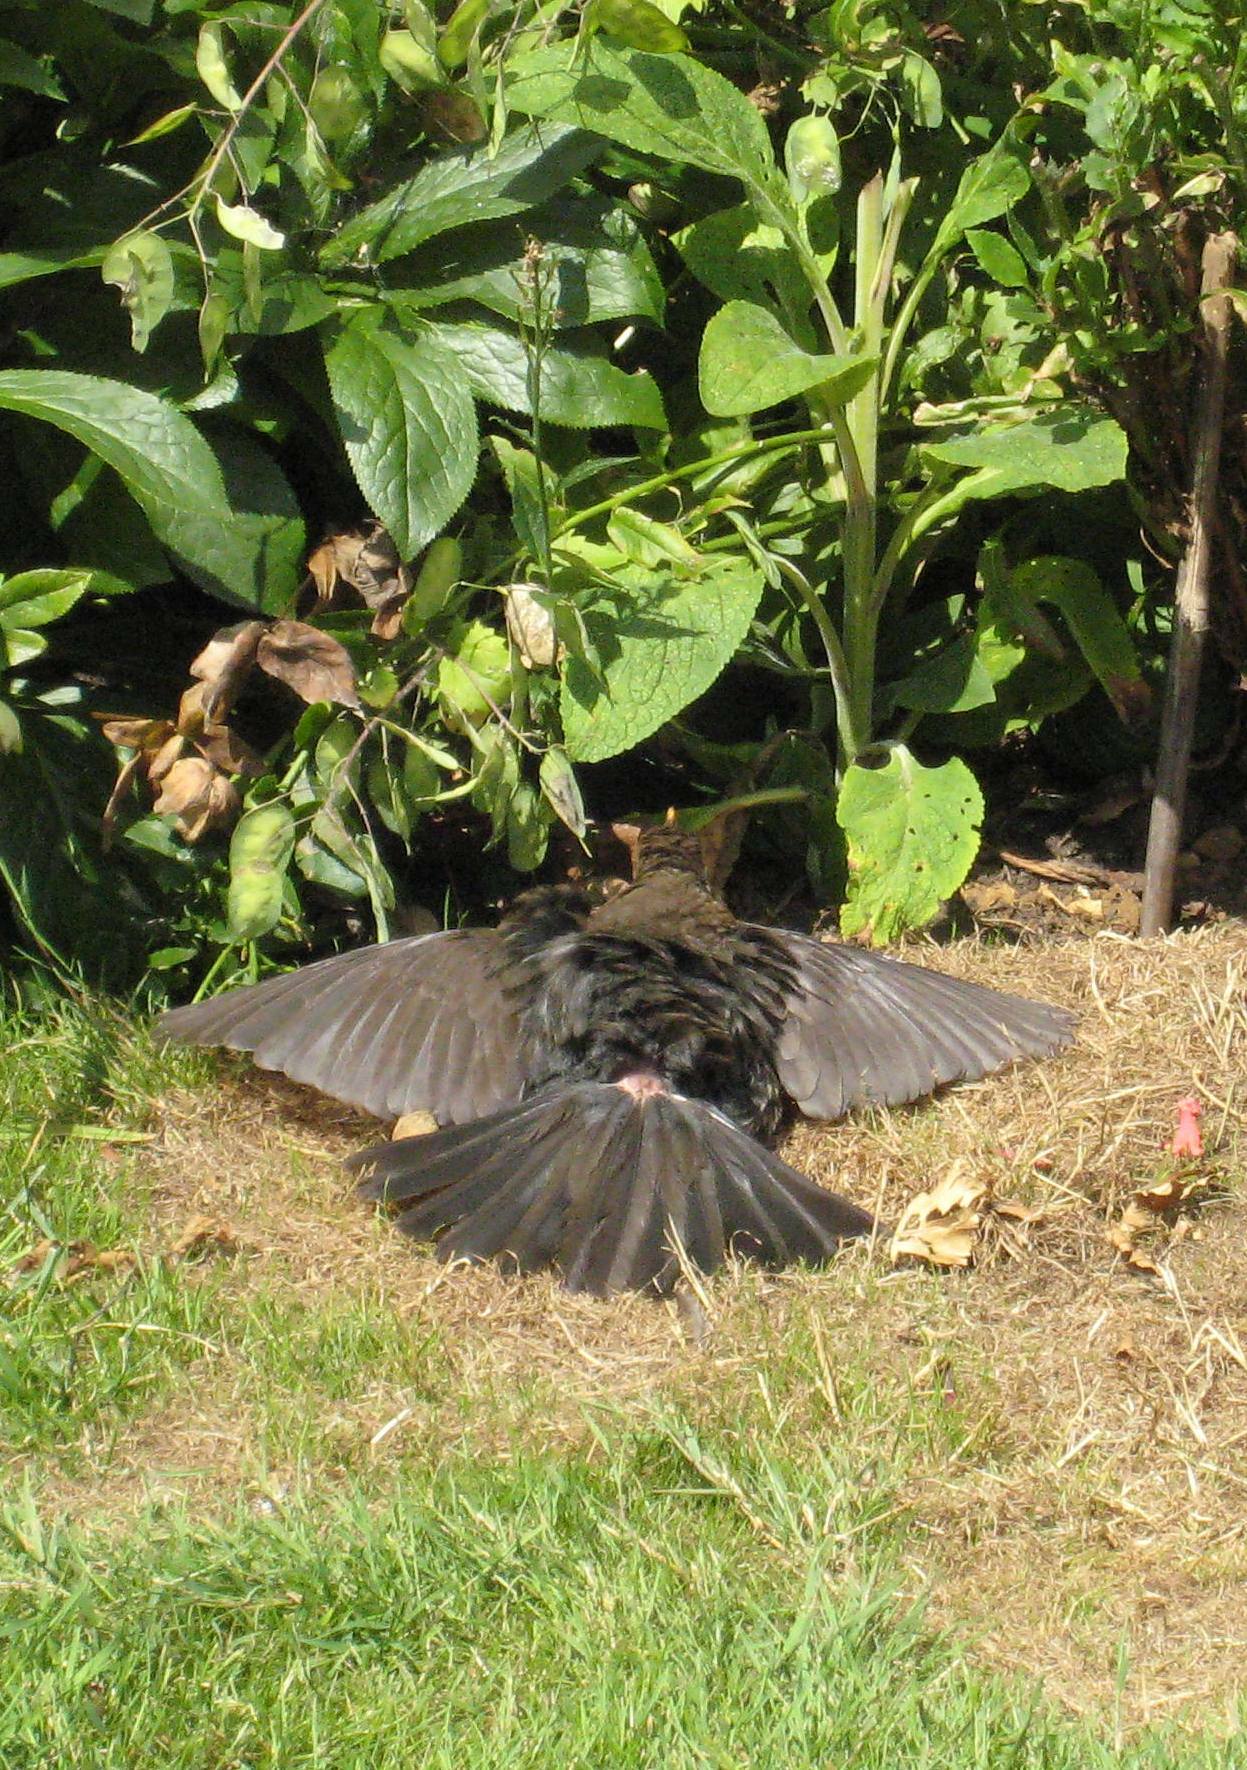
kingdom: Animalia
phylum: Chordata
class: Aves
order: Passeriformes
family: Turdidae
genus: Turdus
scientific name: Turdus merula
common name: Common blackbird
